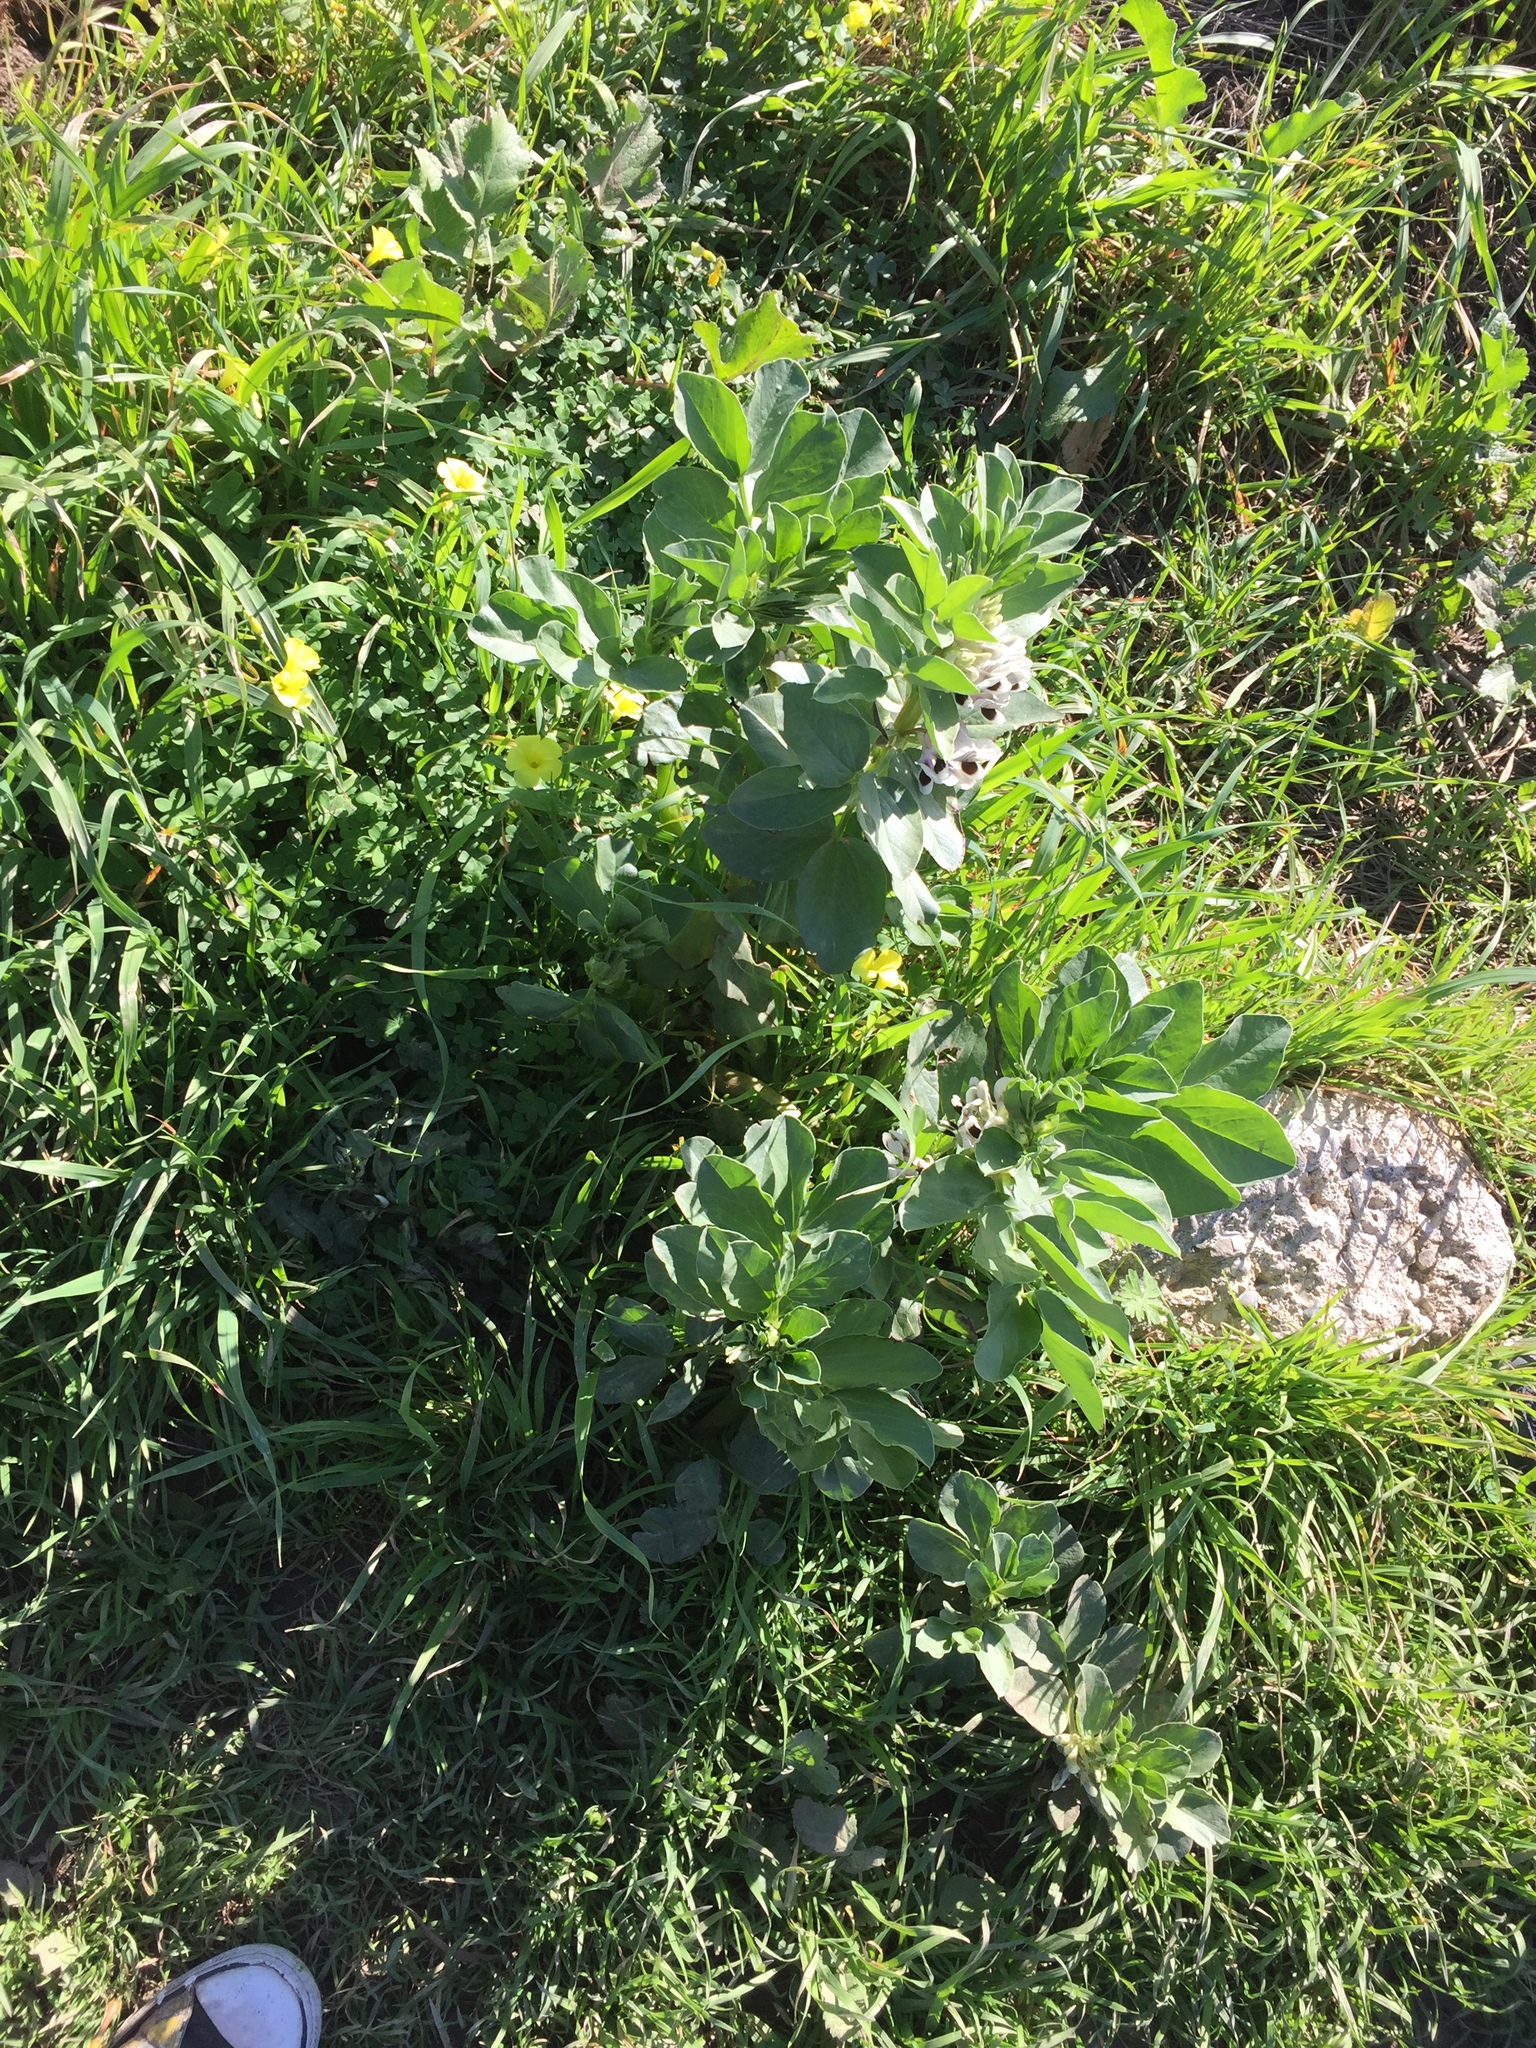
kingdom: Plantae
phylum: Tracheophyta
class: Magnoliopsida
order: Fabales
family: Fabaceae
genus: Vicia
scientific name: Vicia faba
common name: Broad bean
